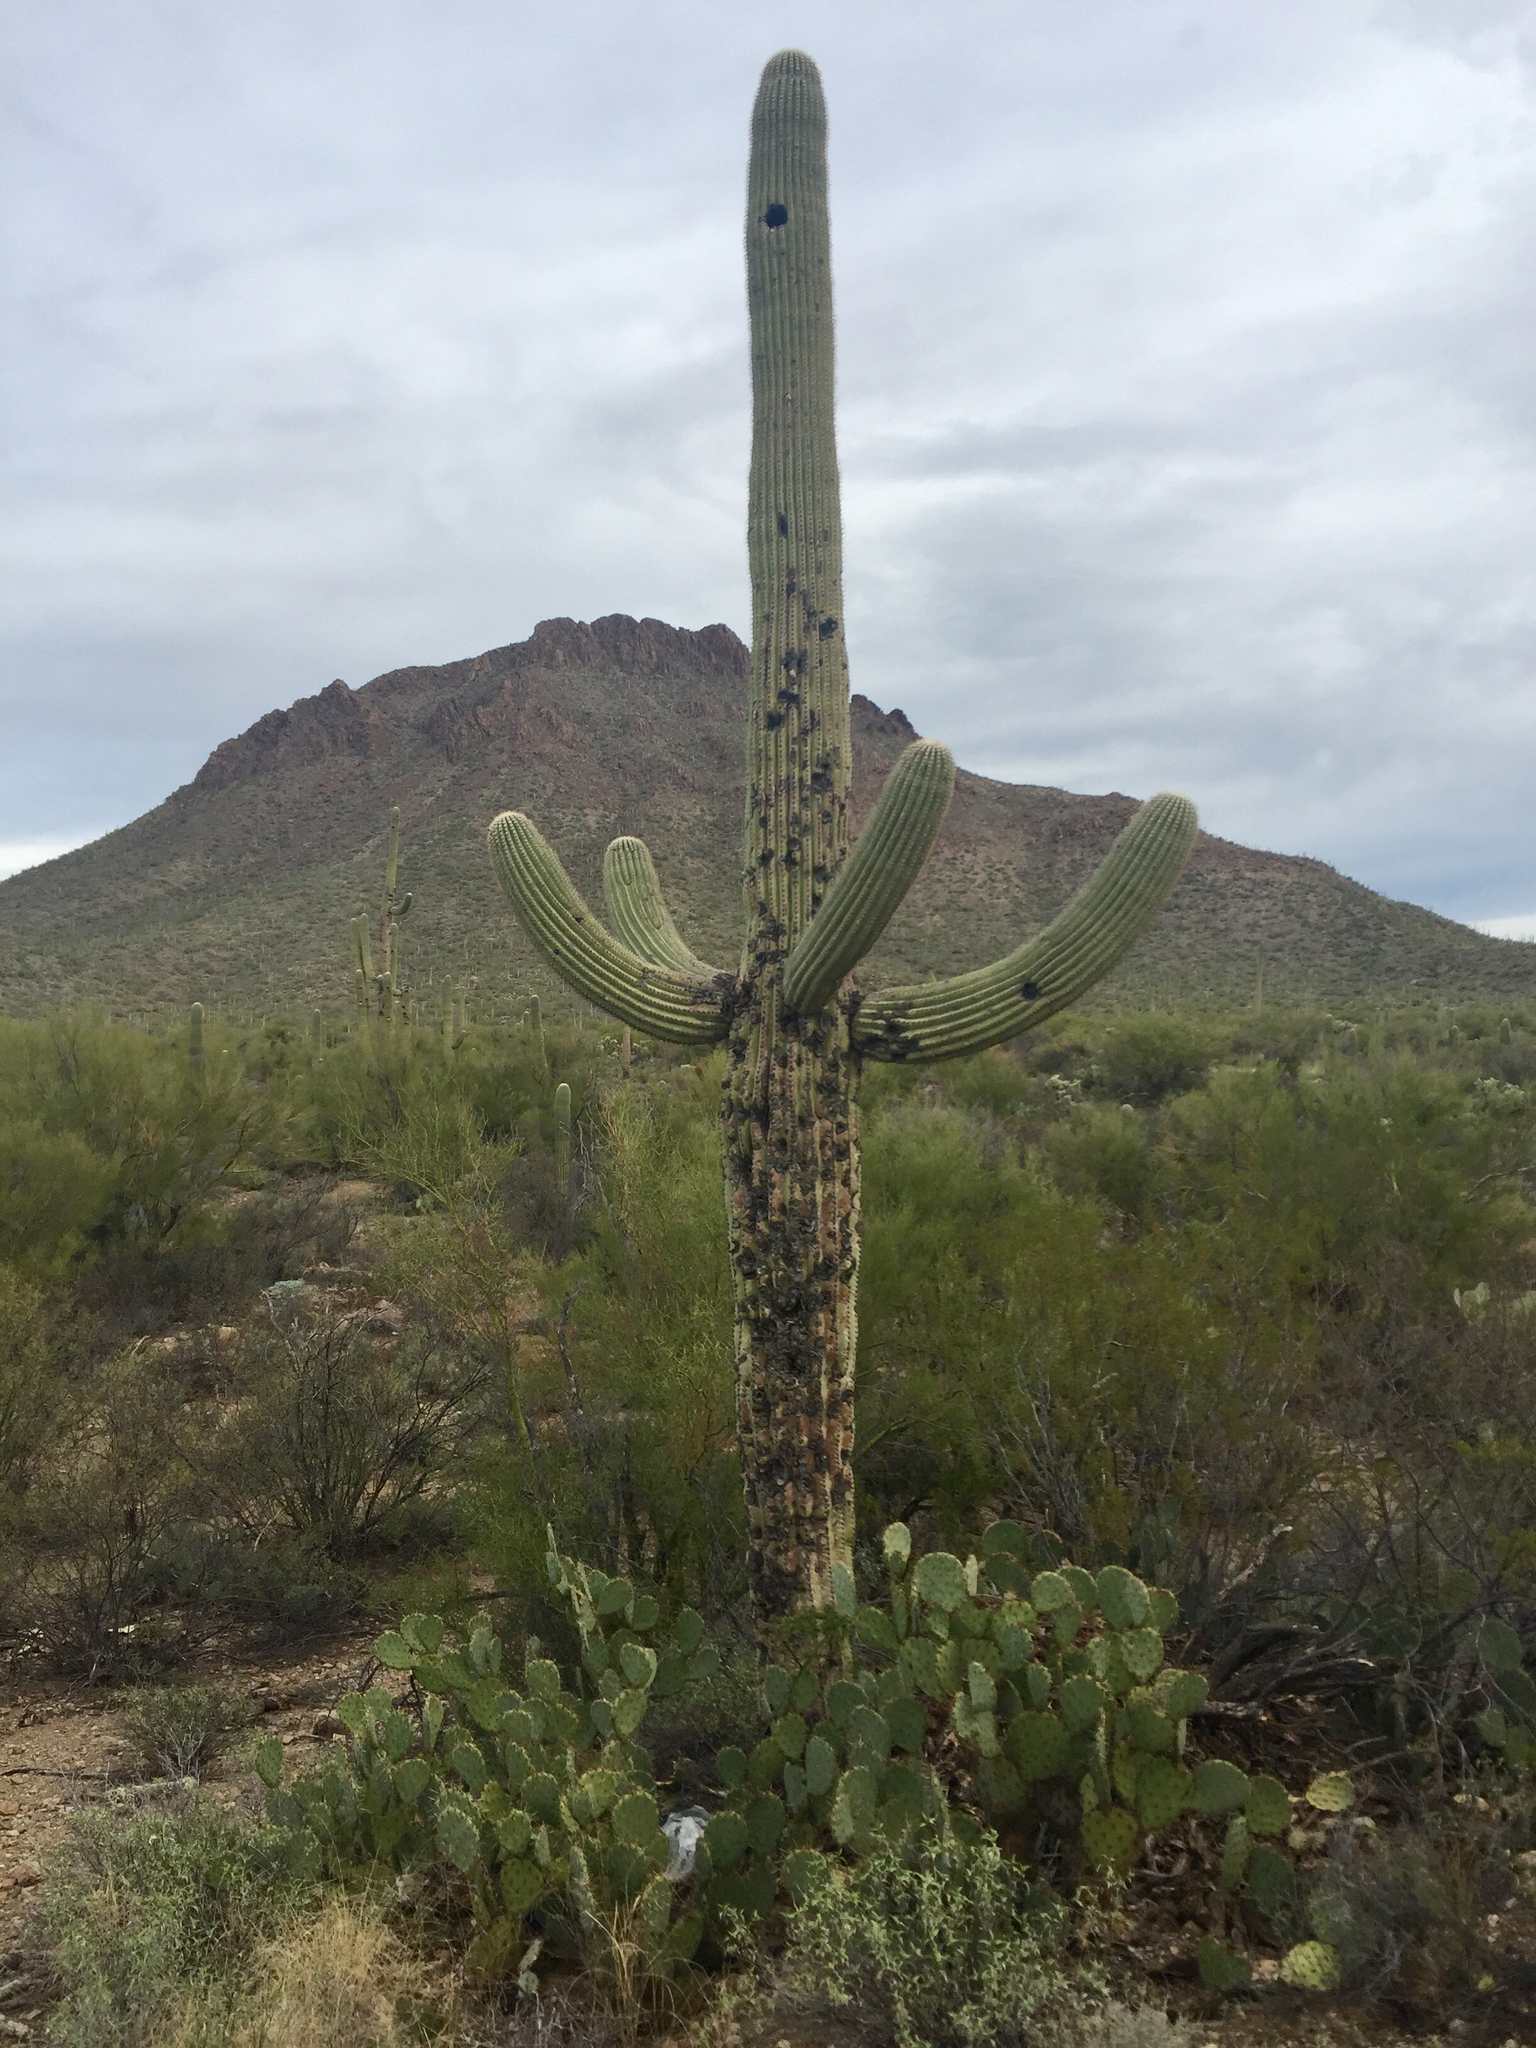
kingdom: Plantae
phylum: Tracheophyta
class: Magnoliopsida
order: Caryophyllales
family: Cactaceae
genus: Carnegiea
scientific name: Carnegiea gigantea
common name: Saguaro
